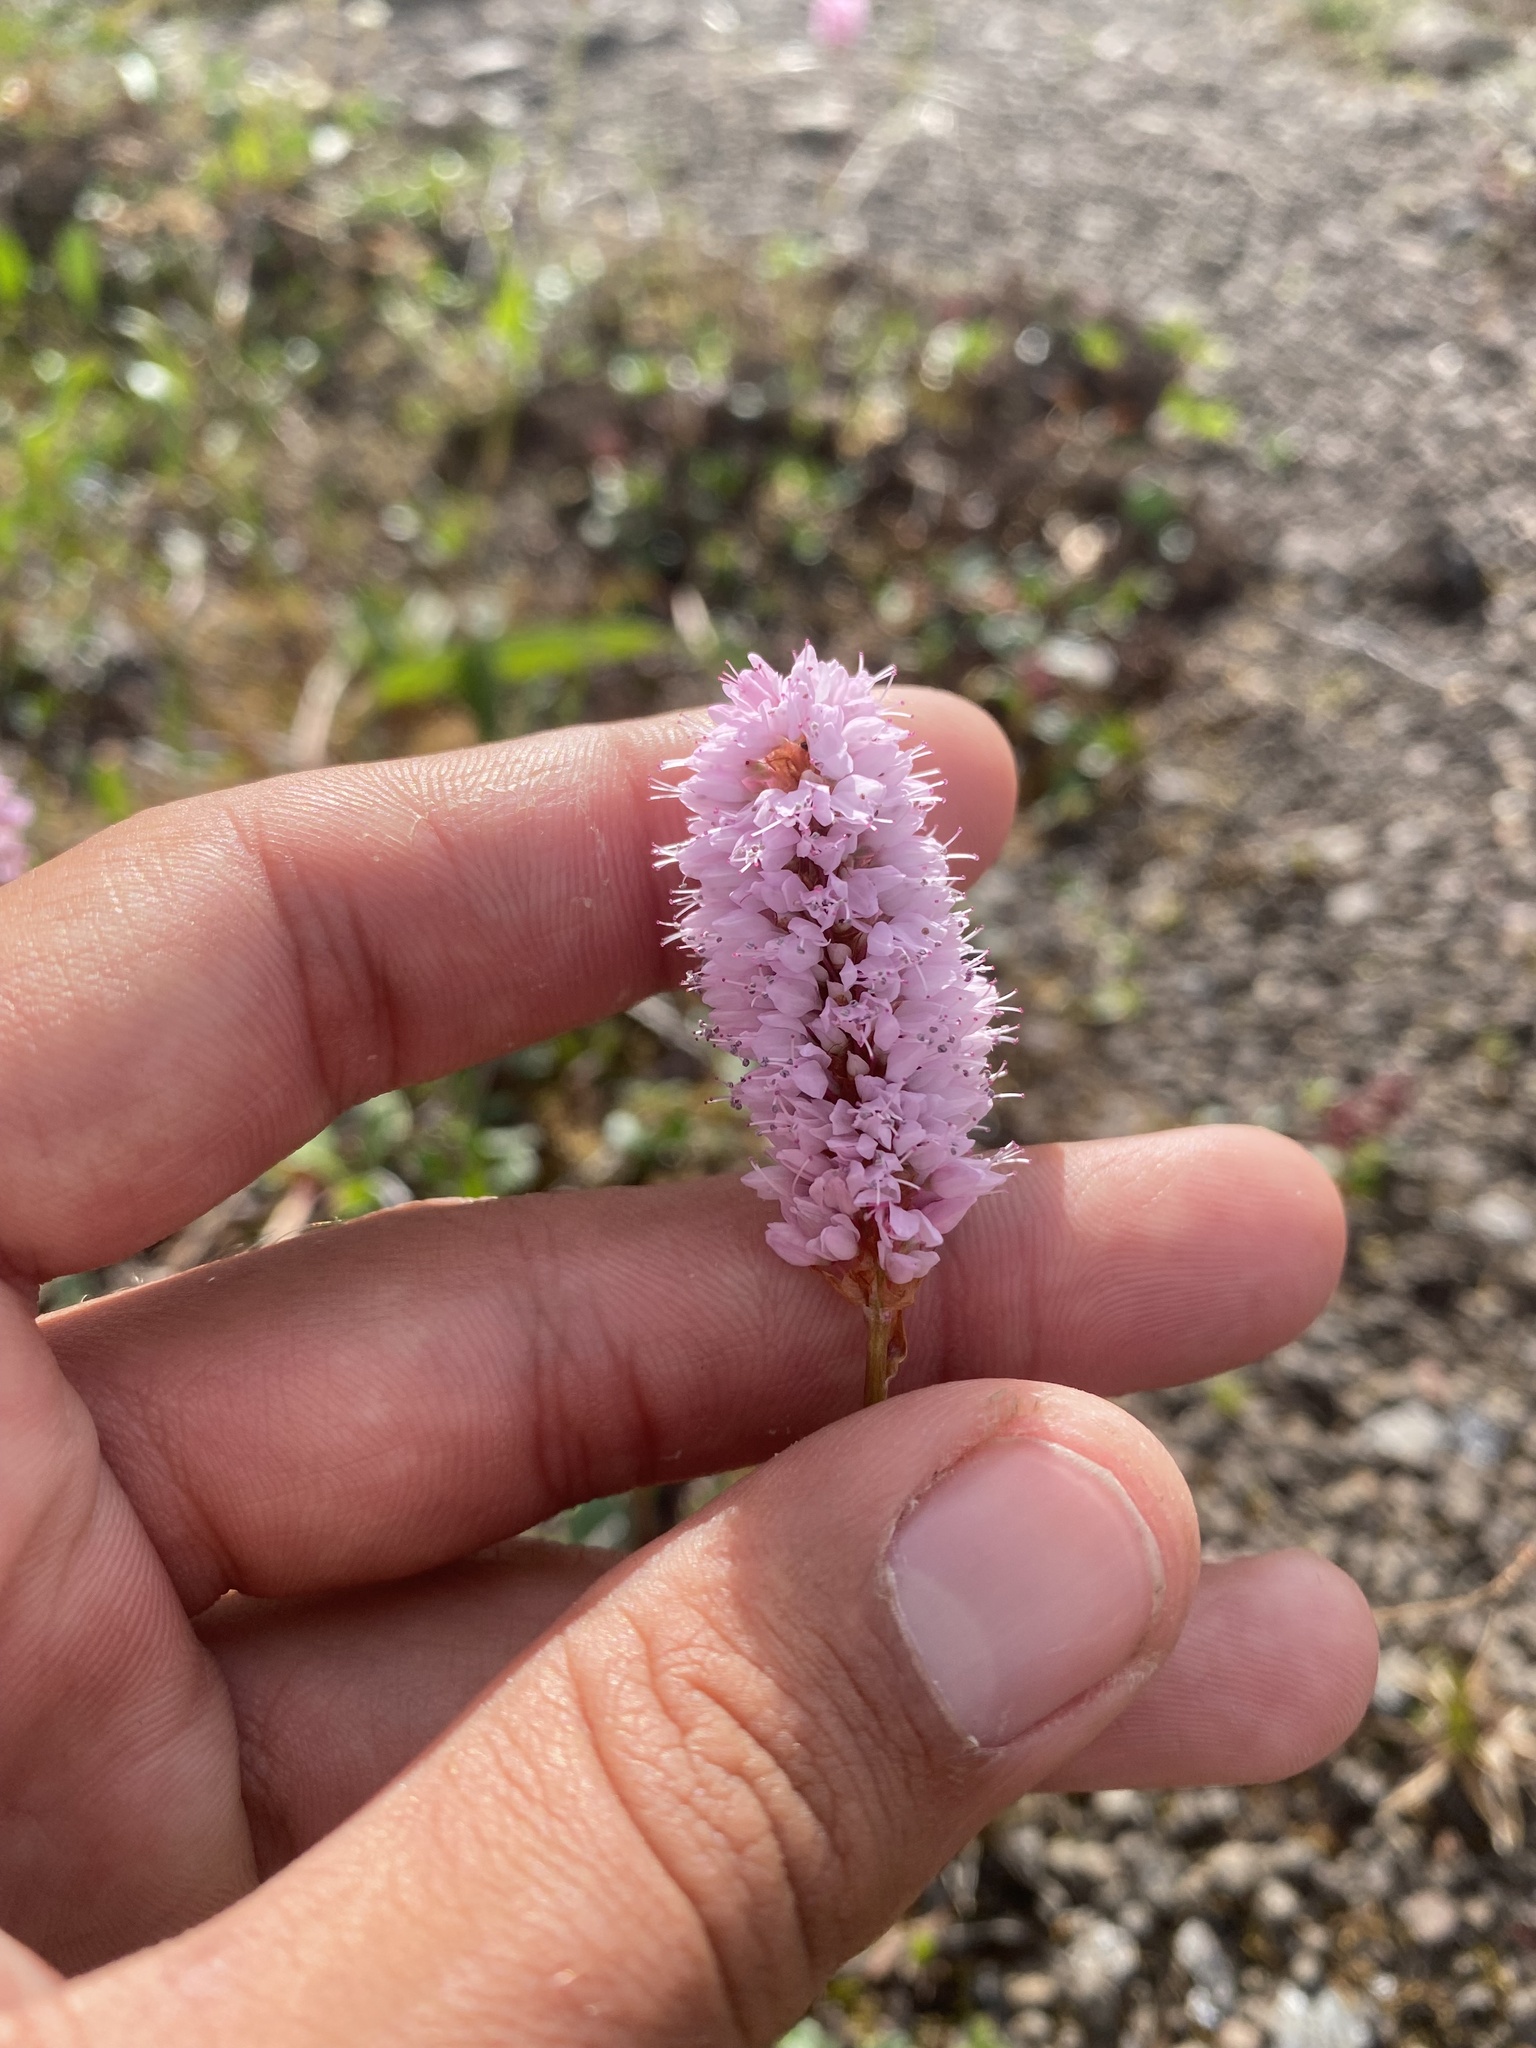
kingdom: Plantae
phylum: Tracheophyta
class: Magnoliopsida
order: Caryophyllales
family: Polygonaceae
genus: Bistorta
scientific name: Bistorta officinalis
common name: Common bistort
